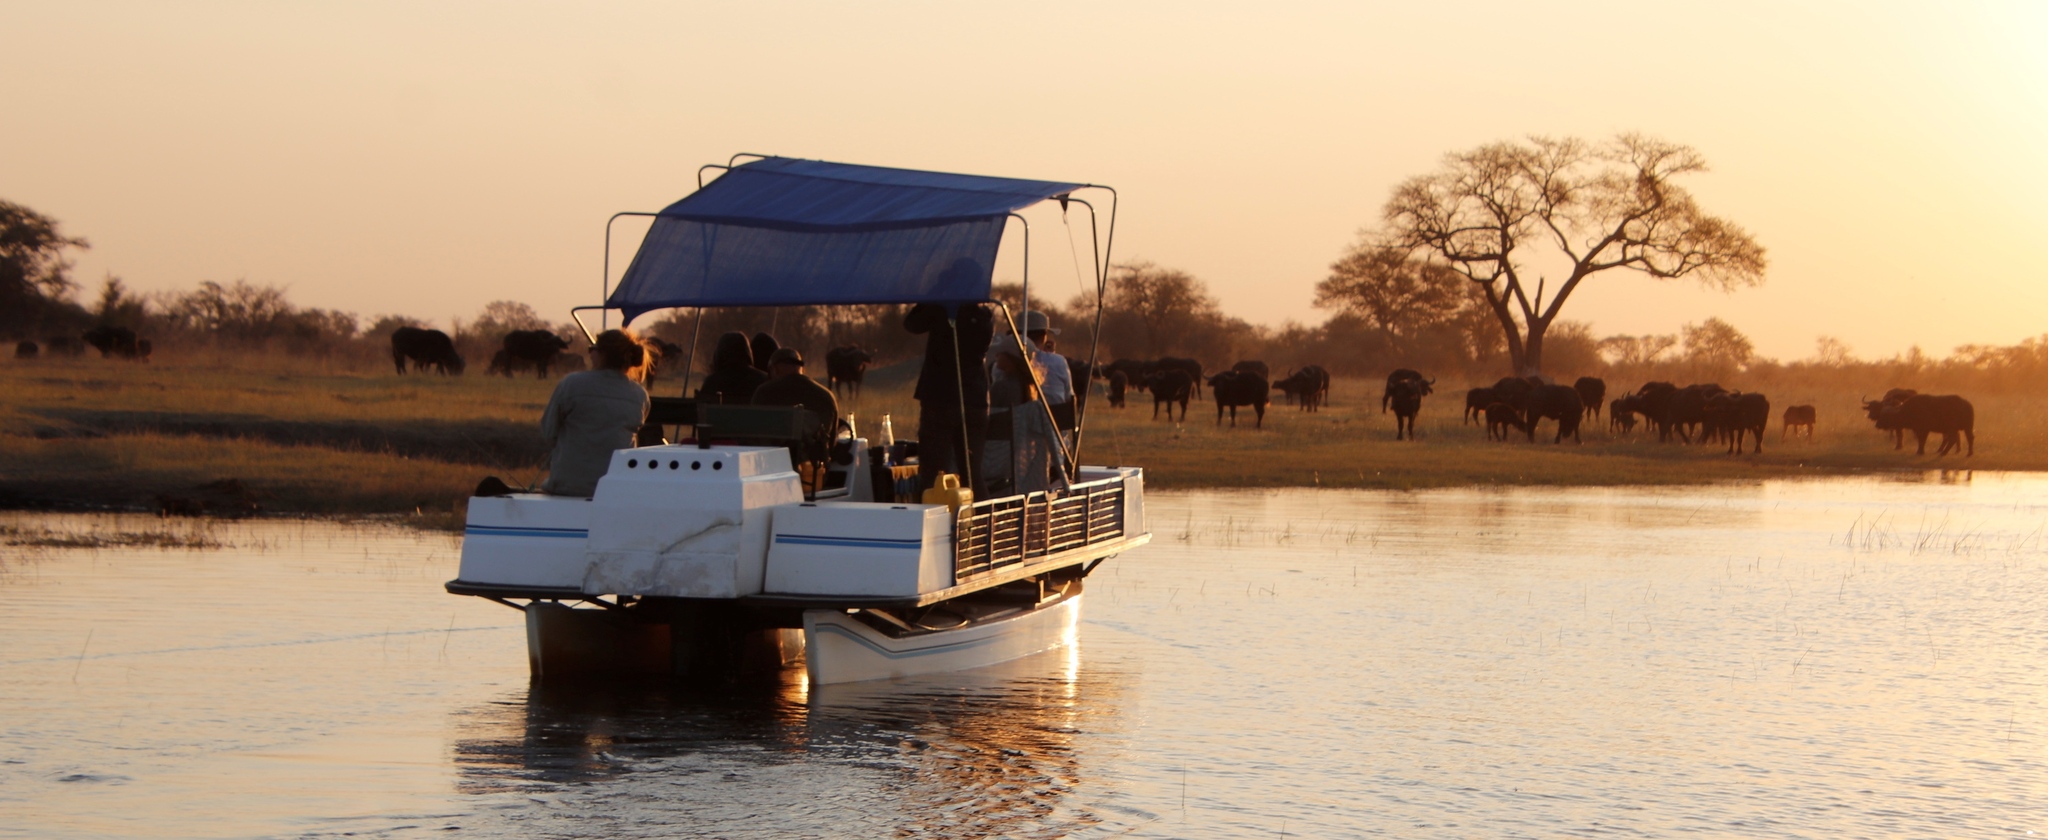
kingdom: Animalia
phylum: Chordata
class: Mammalia
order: Artiodactyla
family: Bovidae
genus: Syncerus
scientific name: Syncerus caffer
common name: African buffalo
